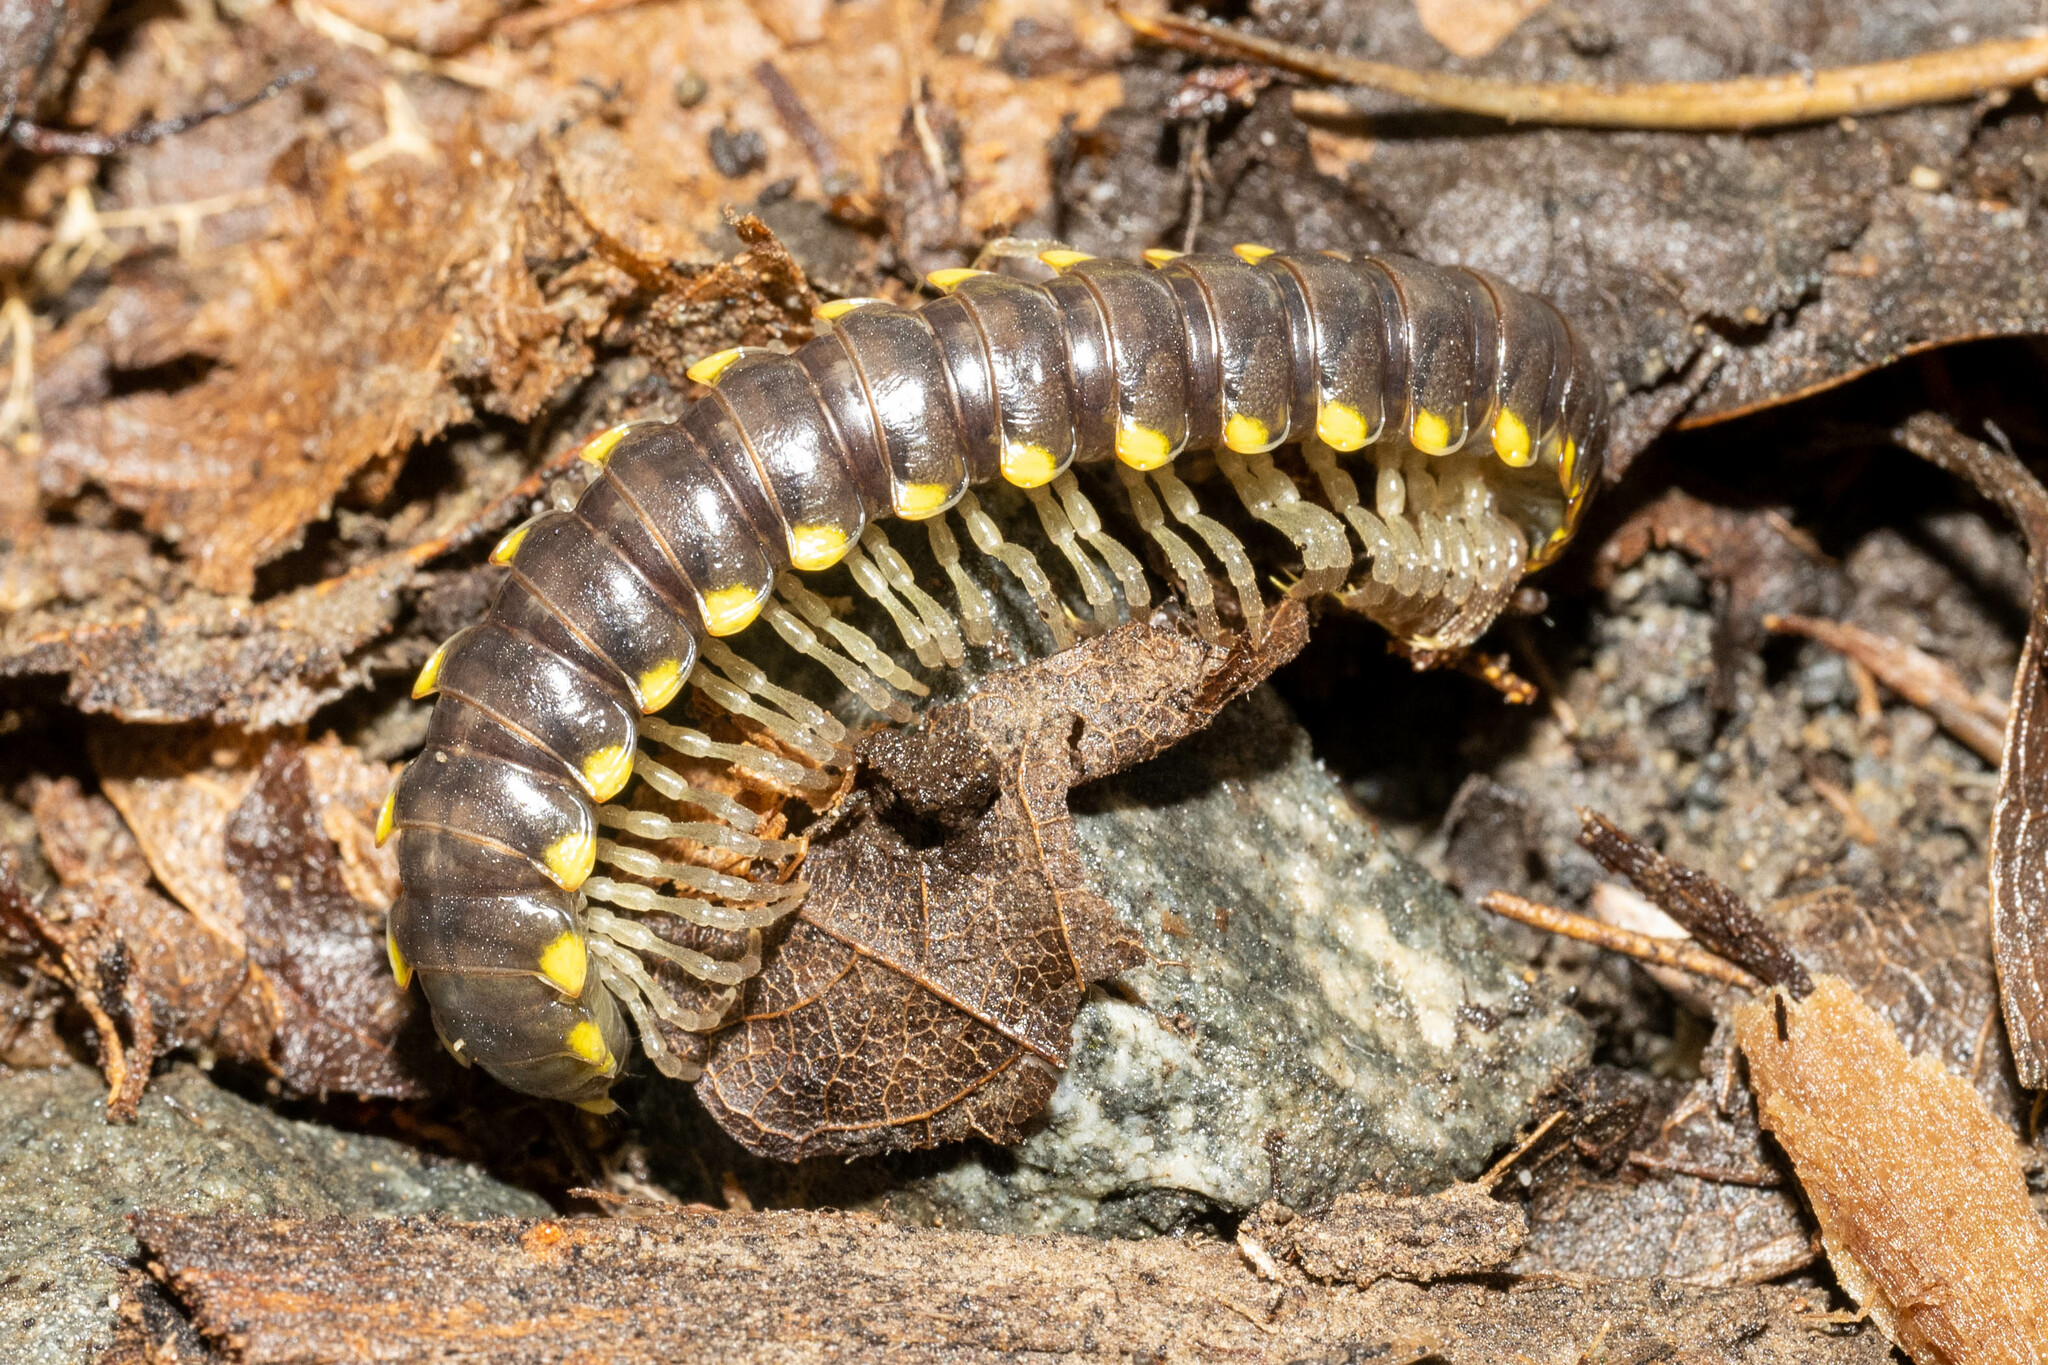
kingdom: Animalia
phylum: Arthropoda
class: Diplopoda
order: Polydesmida
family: Xystodesmidae
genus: Harpaphe
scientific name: Harpaphe haydeniana
